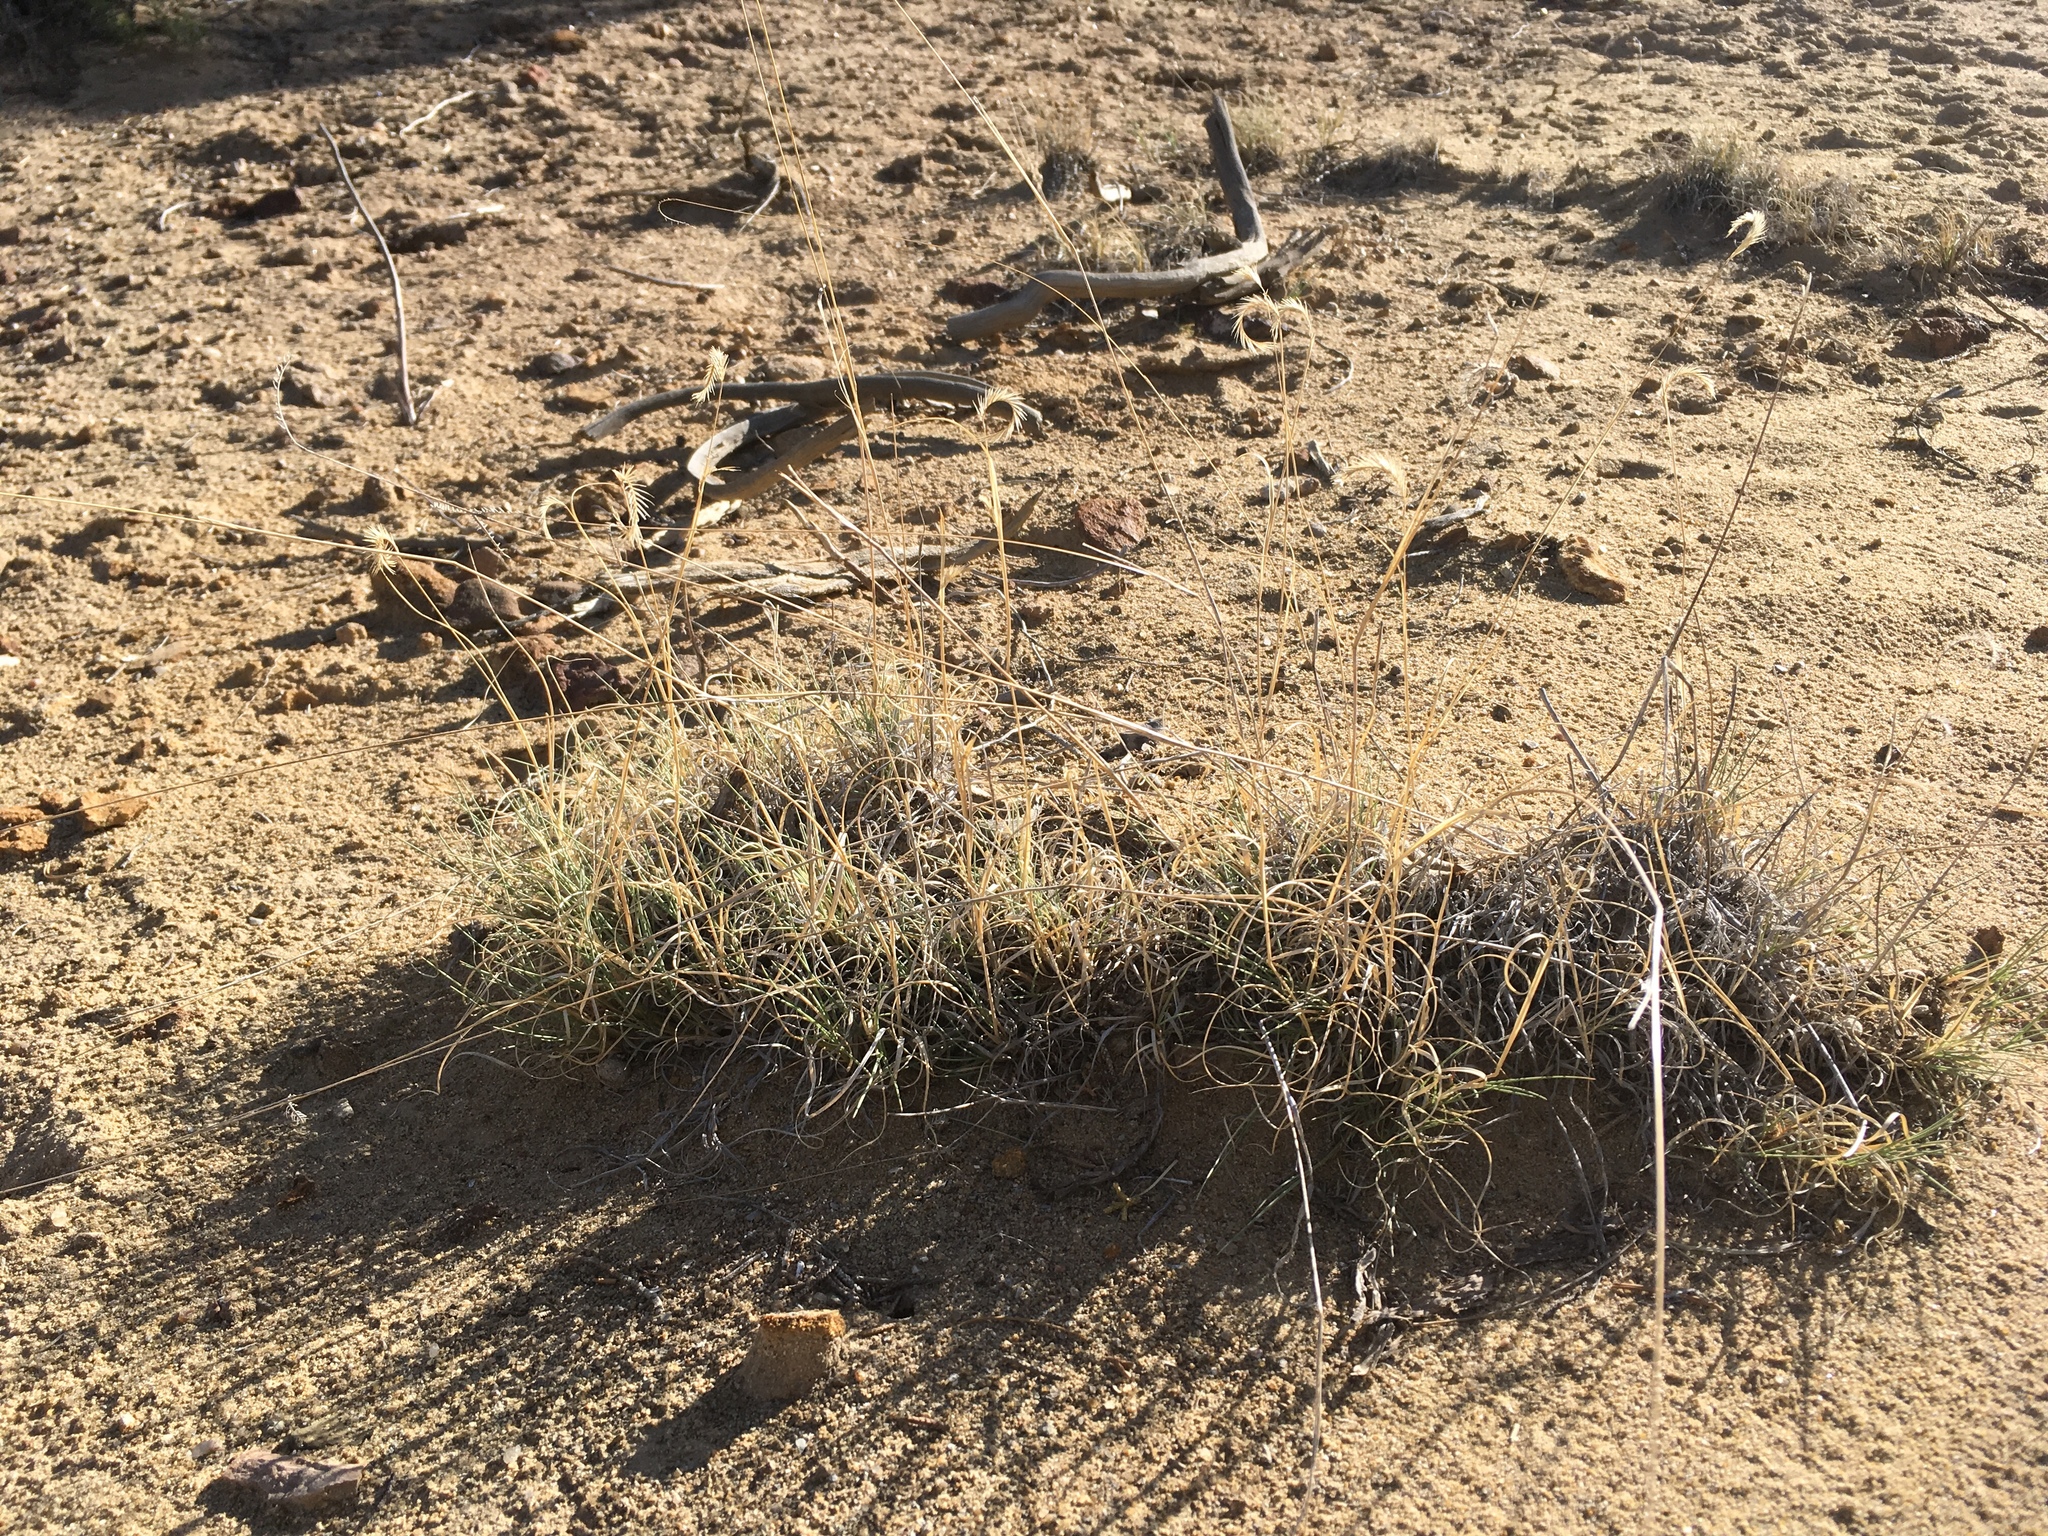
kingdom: Plantae
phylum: Tracheophyta
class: Liliopsida
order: Poales
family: Poaceae
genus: Bouteloua
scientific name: Bouteloua gracilis
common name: Blue grama
